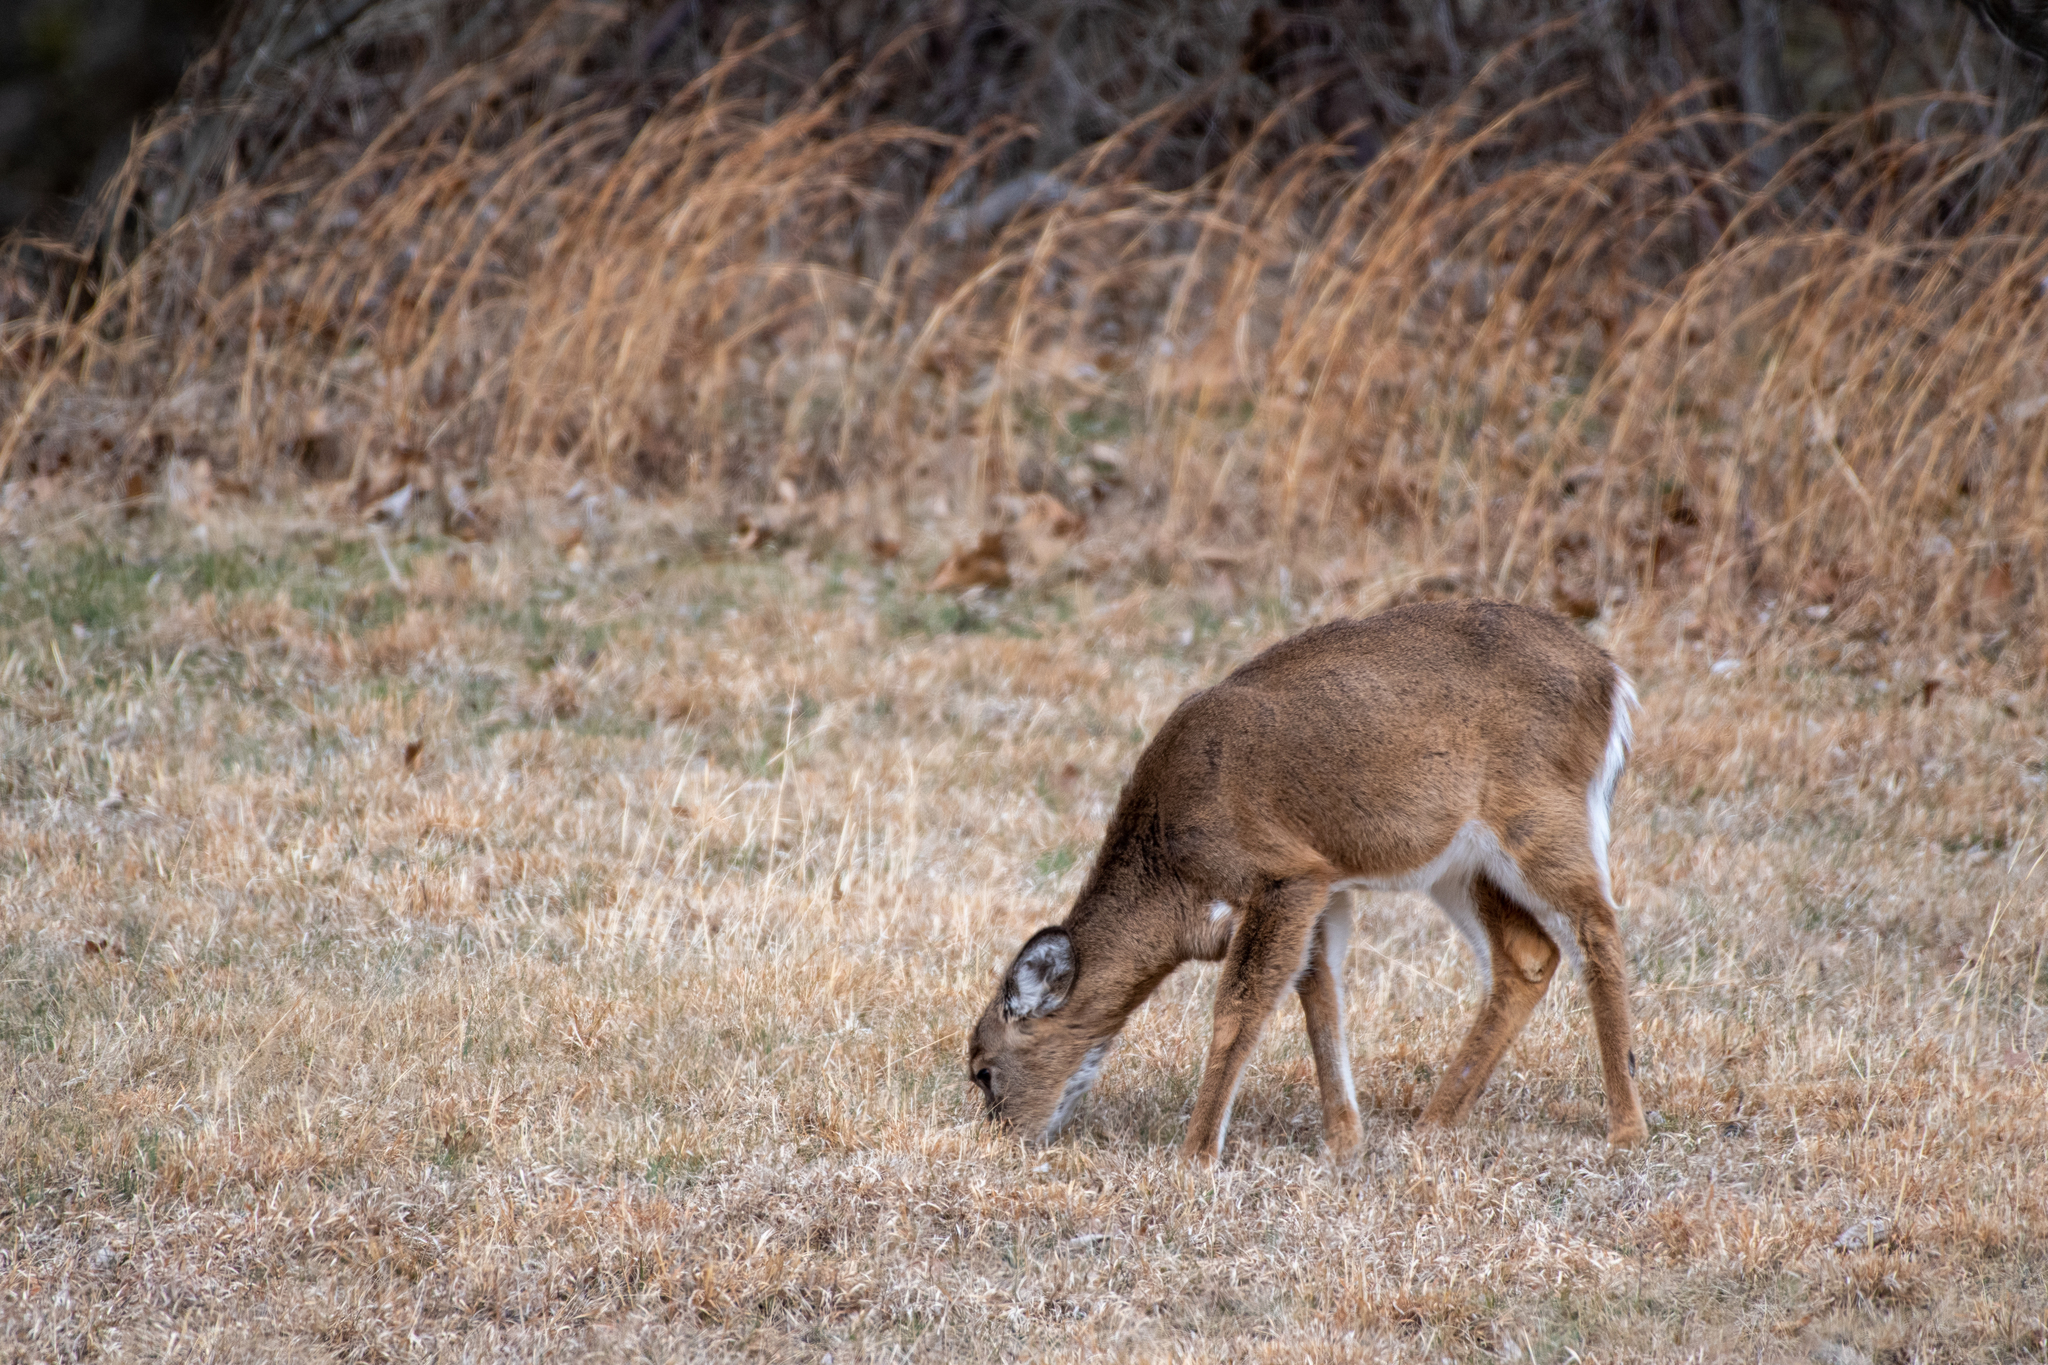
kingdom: Animalia
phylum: Chordata
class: Mammalia
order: Artiodactyla
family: Cervidae
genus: Odocoileus
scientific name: Odocoileus virginianus
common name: White-tailed deer
